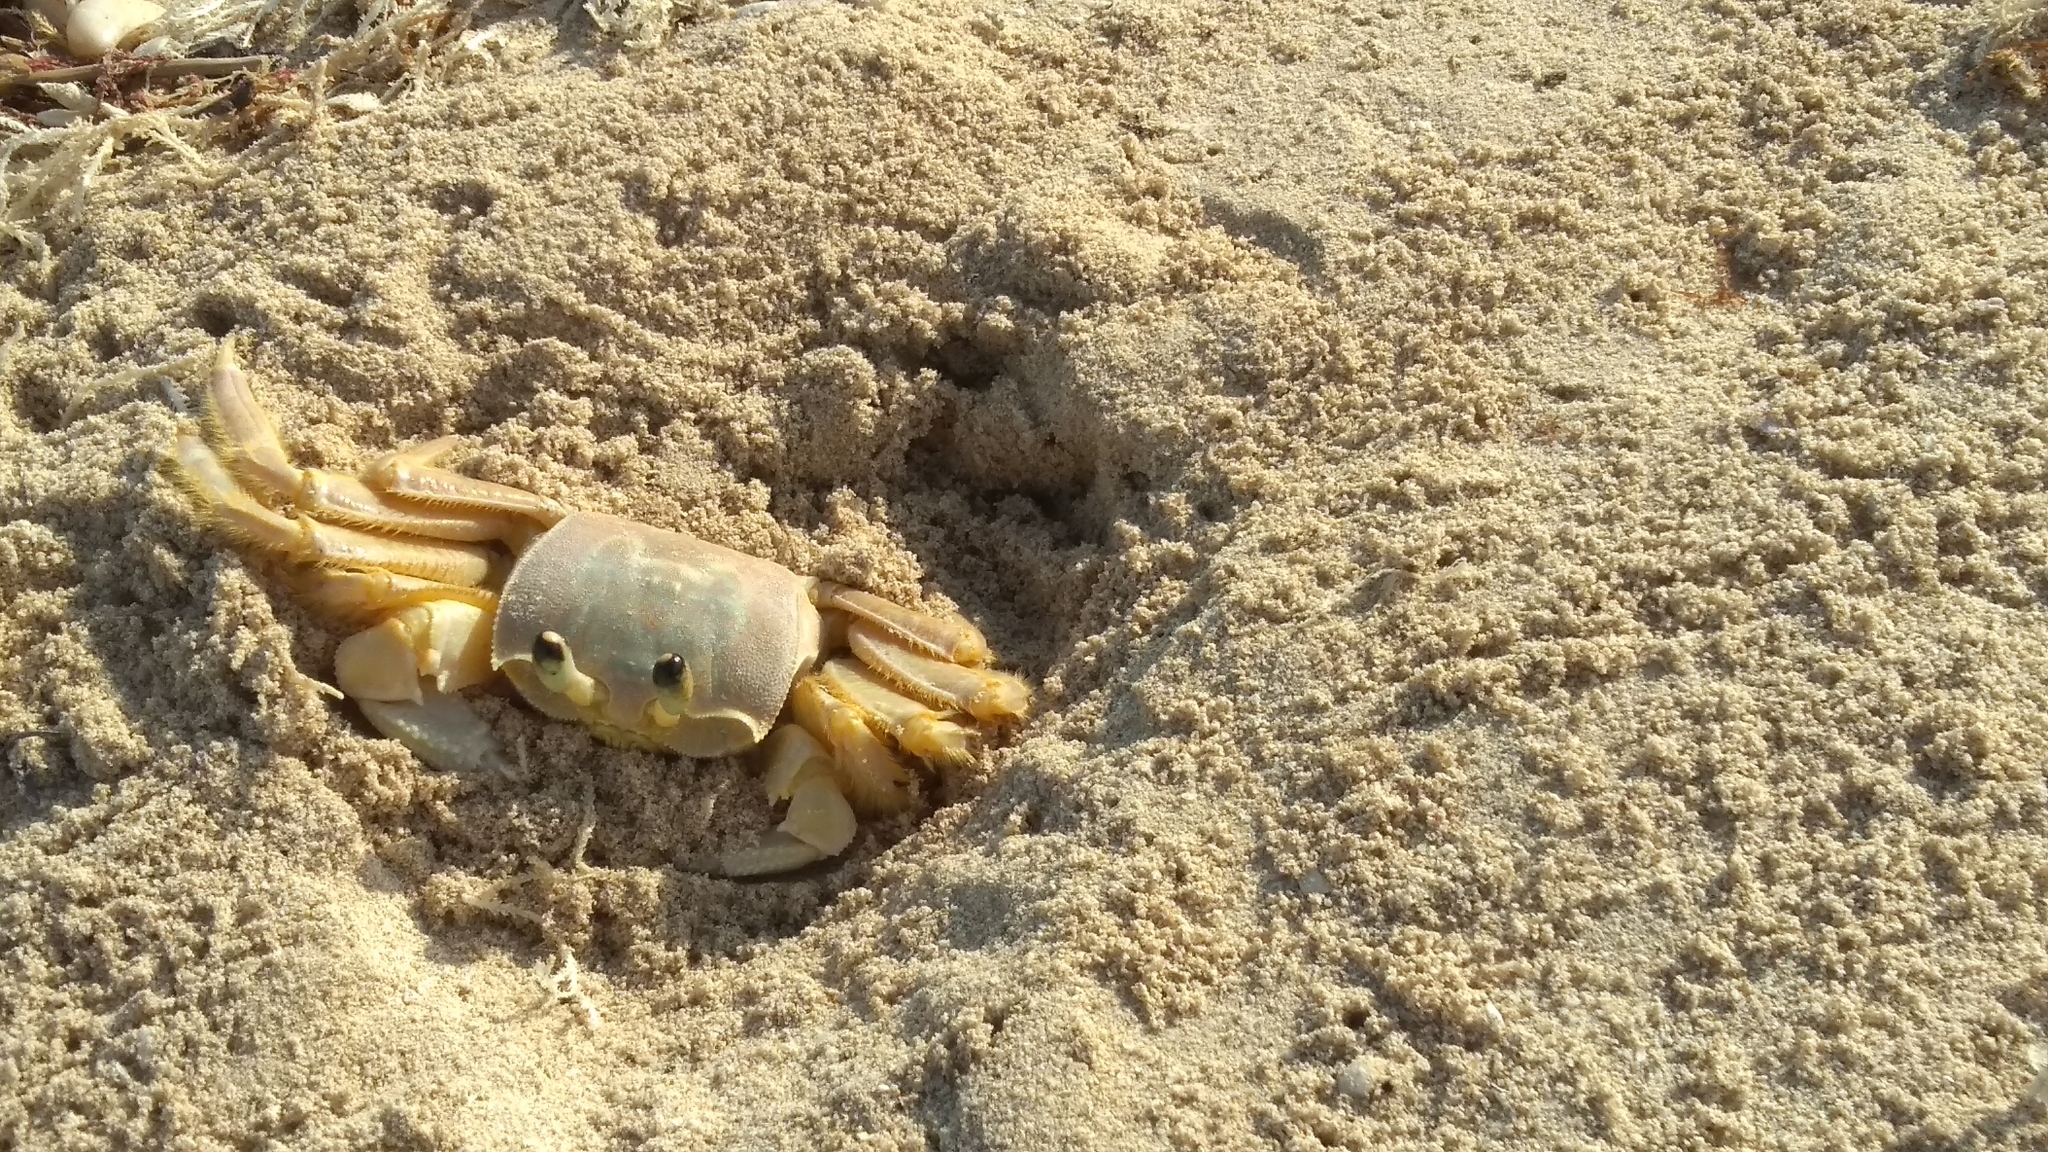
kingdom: Animalia
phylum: Arthropoda
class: Malacostraca
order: Decapoda
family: Ocypodidae
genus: Ocypode
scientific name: Ocypode quadrata
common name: Ghost crab
